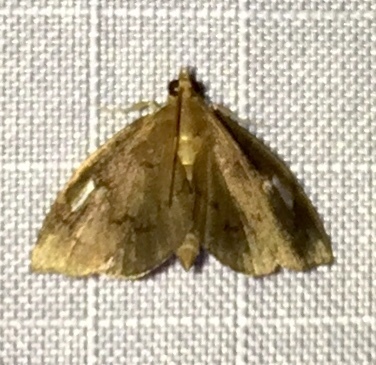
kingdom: Animalia
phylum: Arthropoda
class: Insecta
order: Lepidoptera
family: Crambidae
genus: Perispasta
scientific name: Perispasta caeculalis
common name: Titian peale's moth
